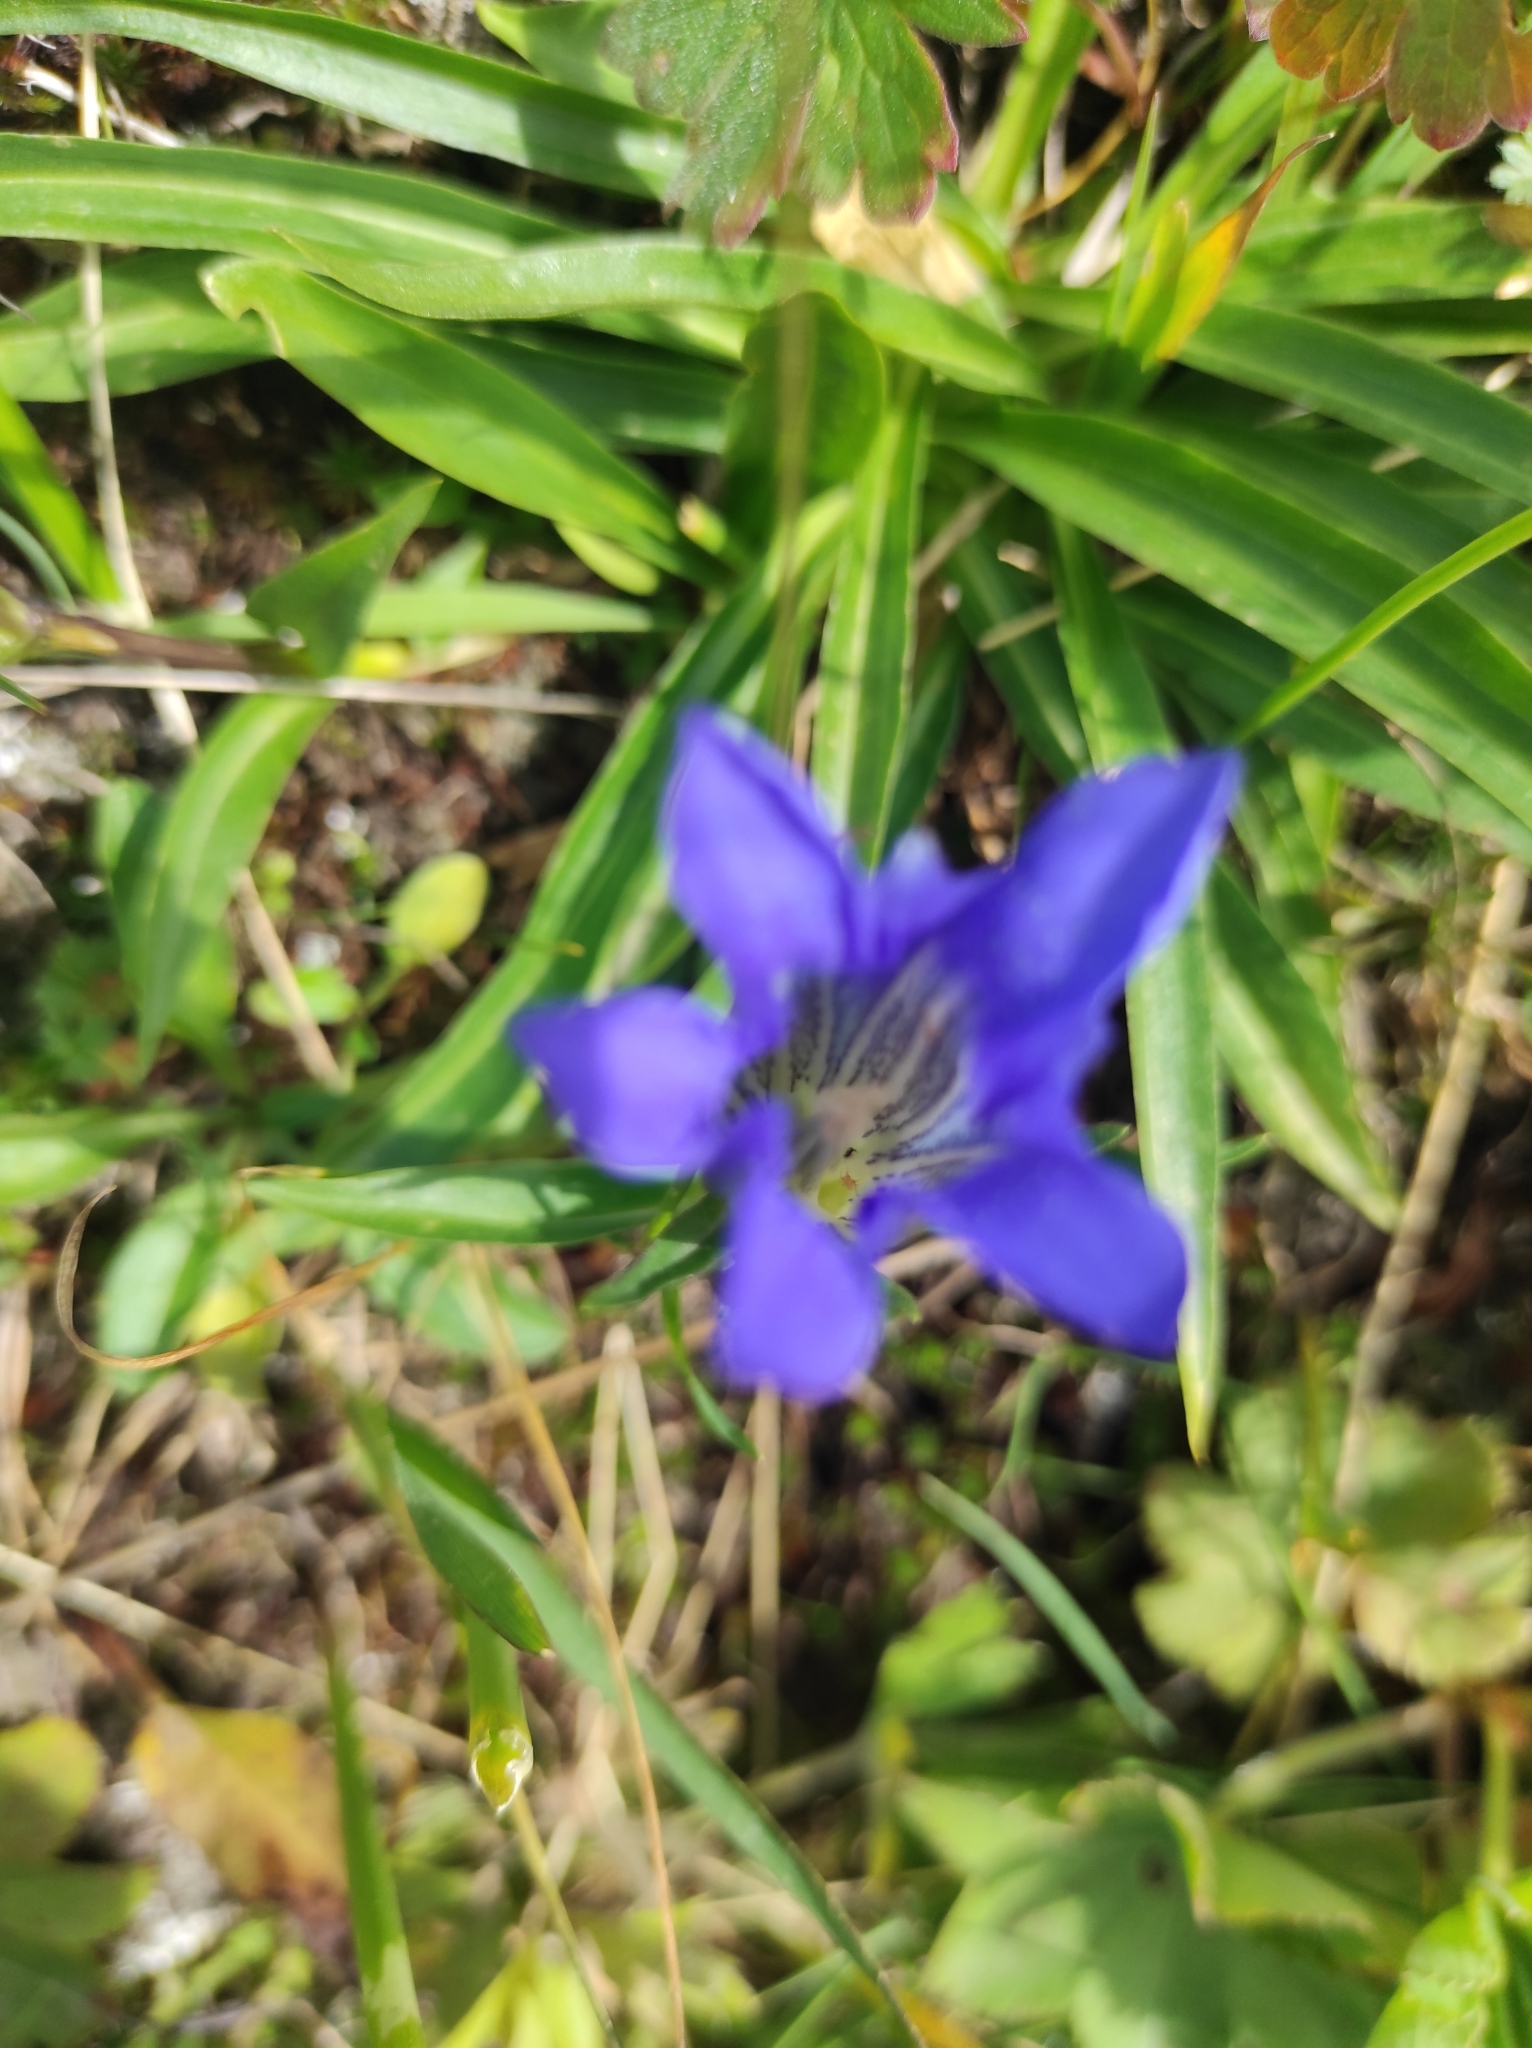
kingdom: Plantae
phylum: Tracheophyta
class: Magnoliopsida
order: Gentianales
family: Gentianaceae
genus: Gentiana
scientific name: Gentiana kauffmanniana
